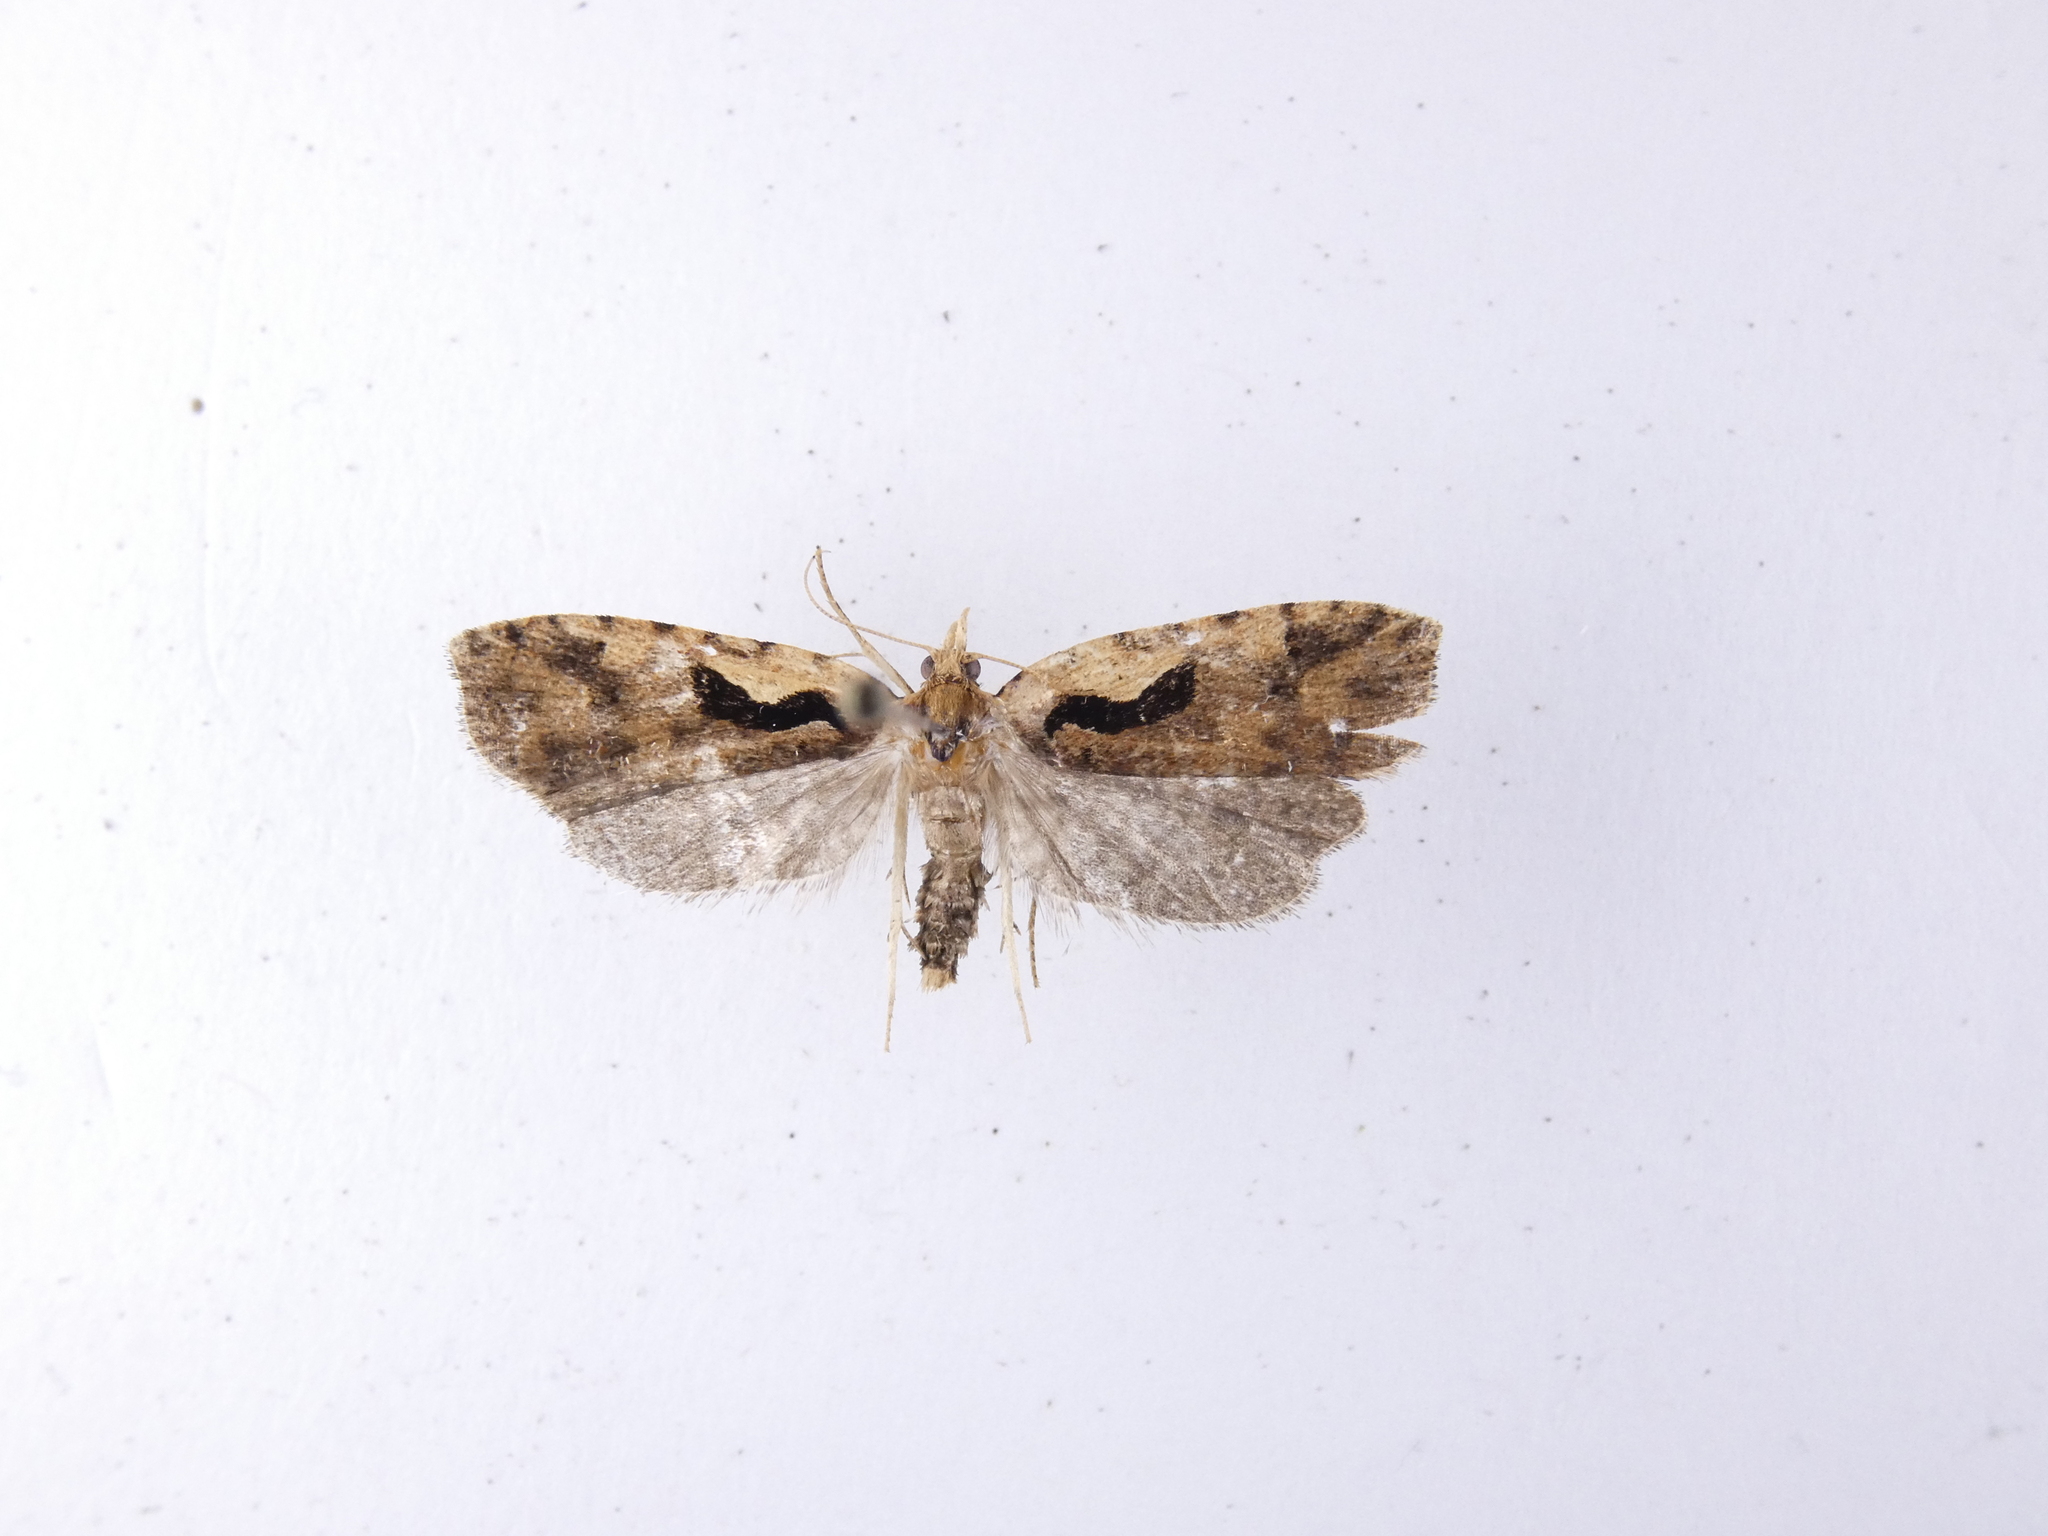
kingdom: Animalia
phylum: Arthropoda
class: Insecta
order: Lepidoptera
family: Tortricidae
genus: Cnephasia
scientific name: Cnephasia jactatana
